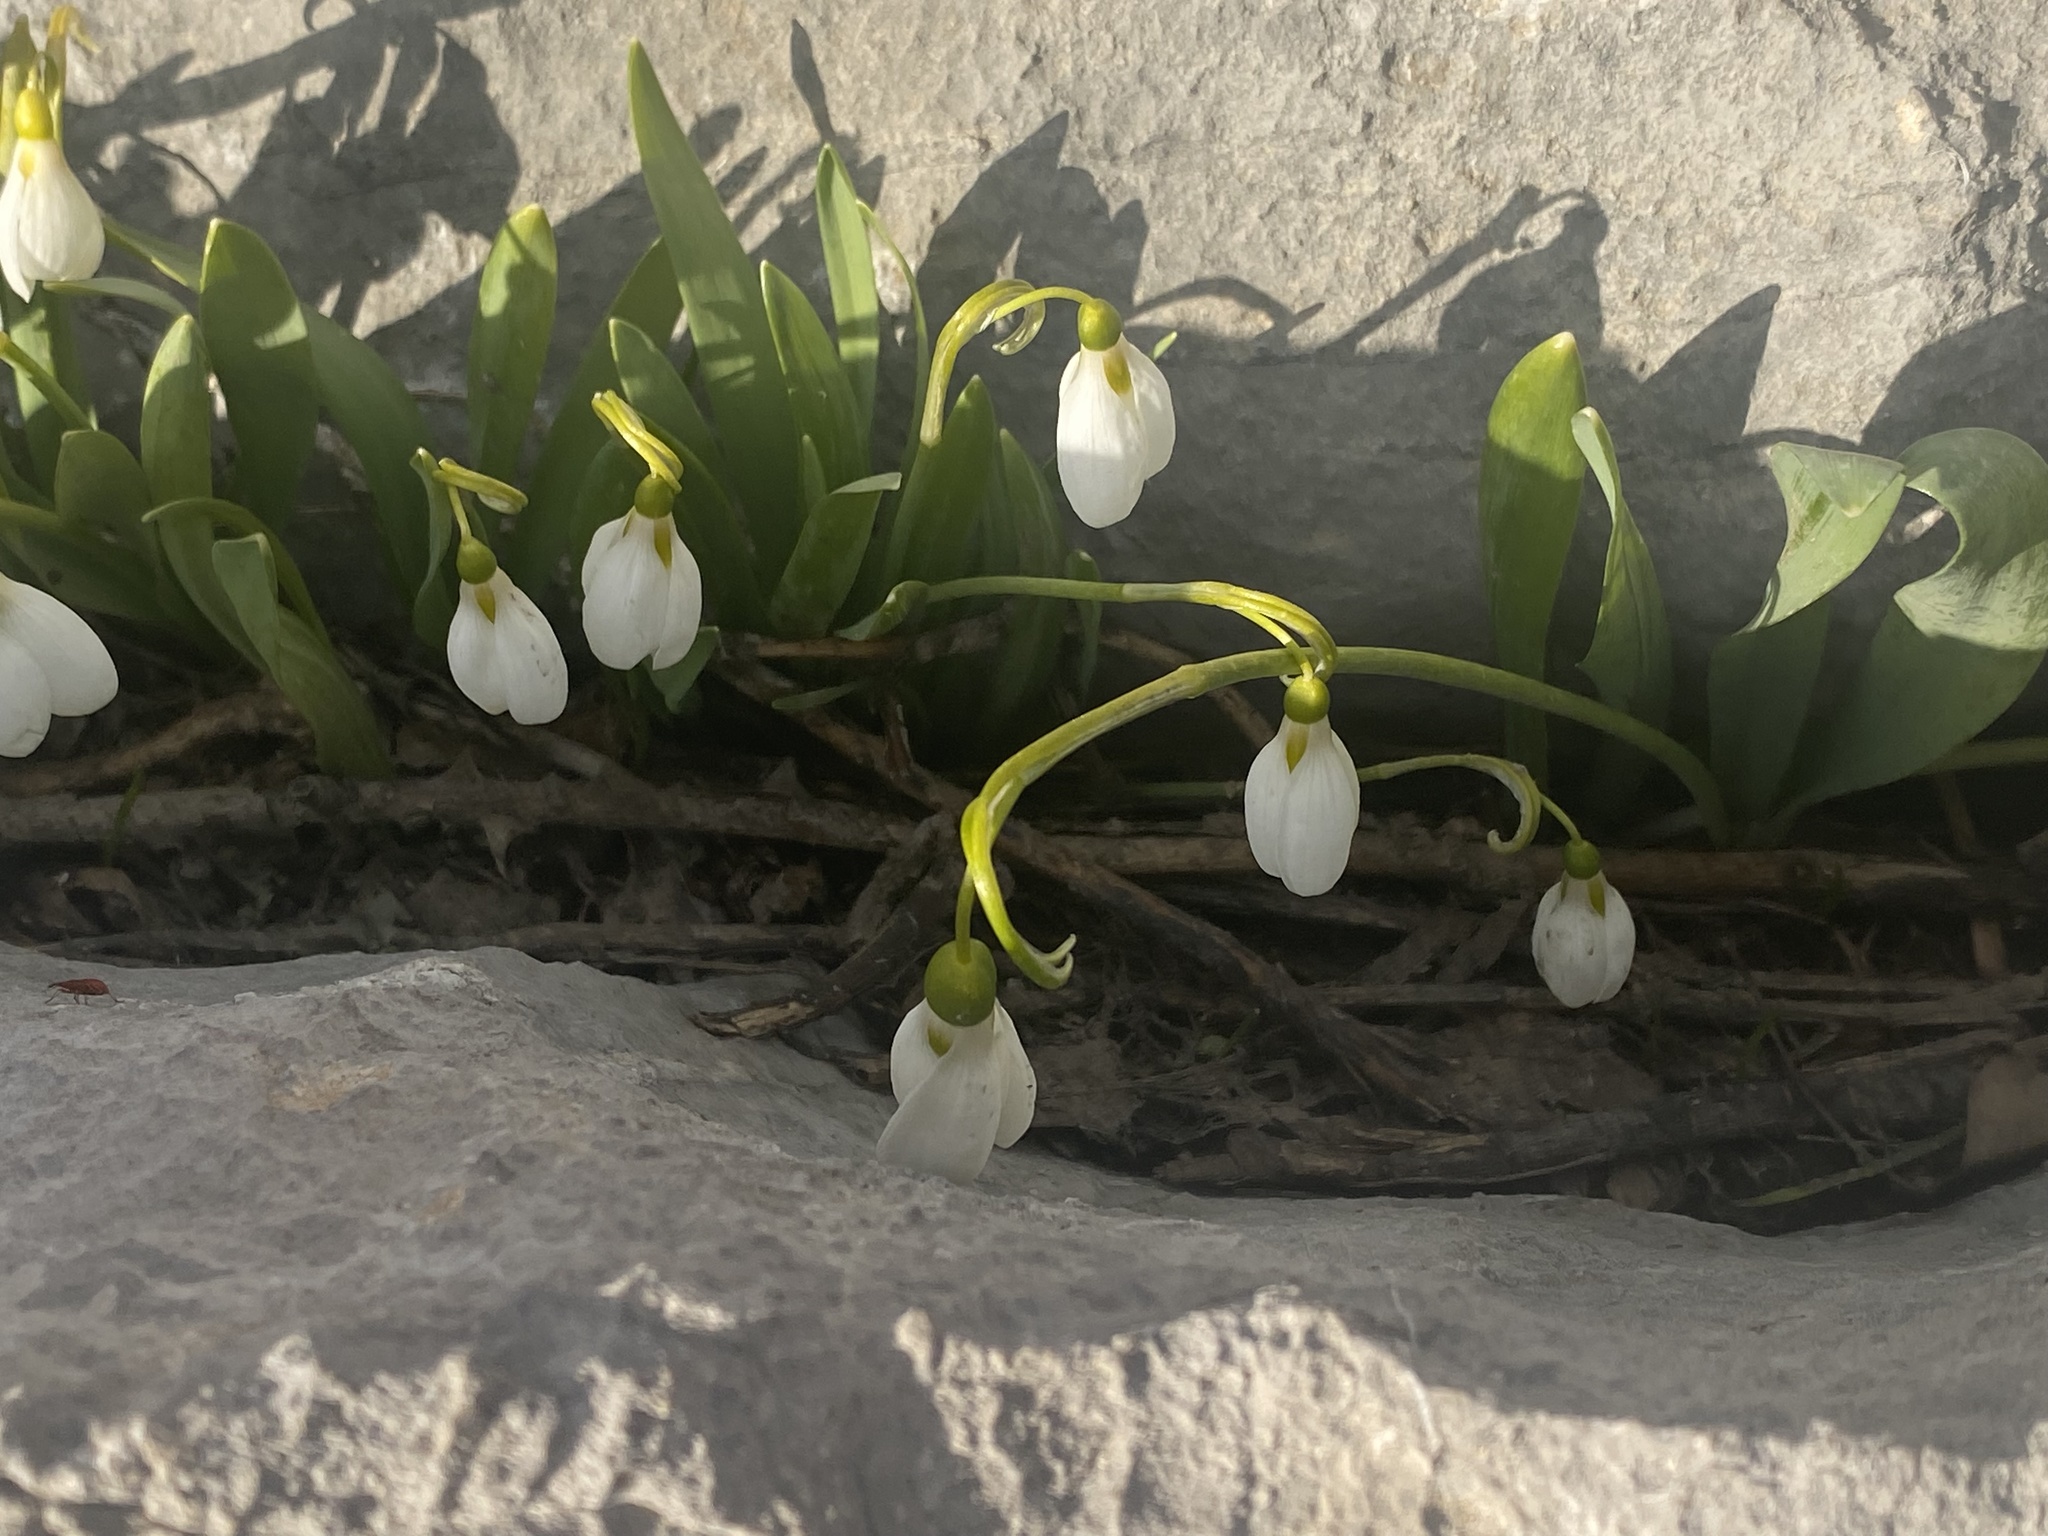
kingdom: Plantae
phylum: Tracheophyta
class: Liliopsida
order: Asparagales
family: Amaryllidaceae
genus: Galanthus
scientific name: Galanthus elwesii
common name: Greater snowdrop
